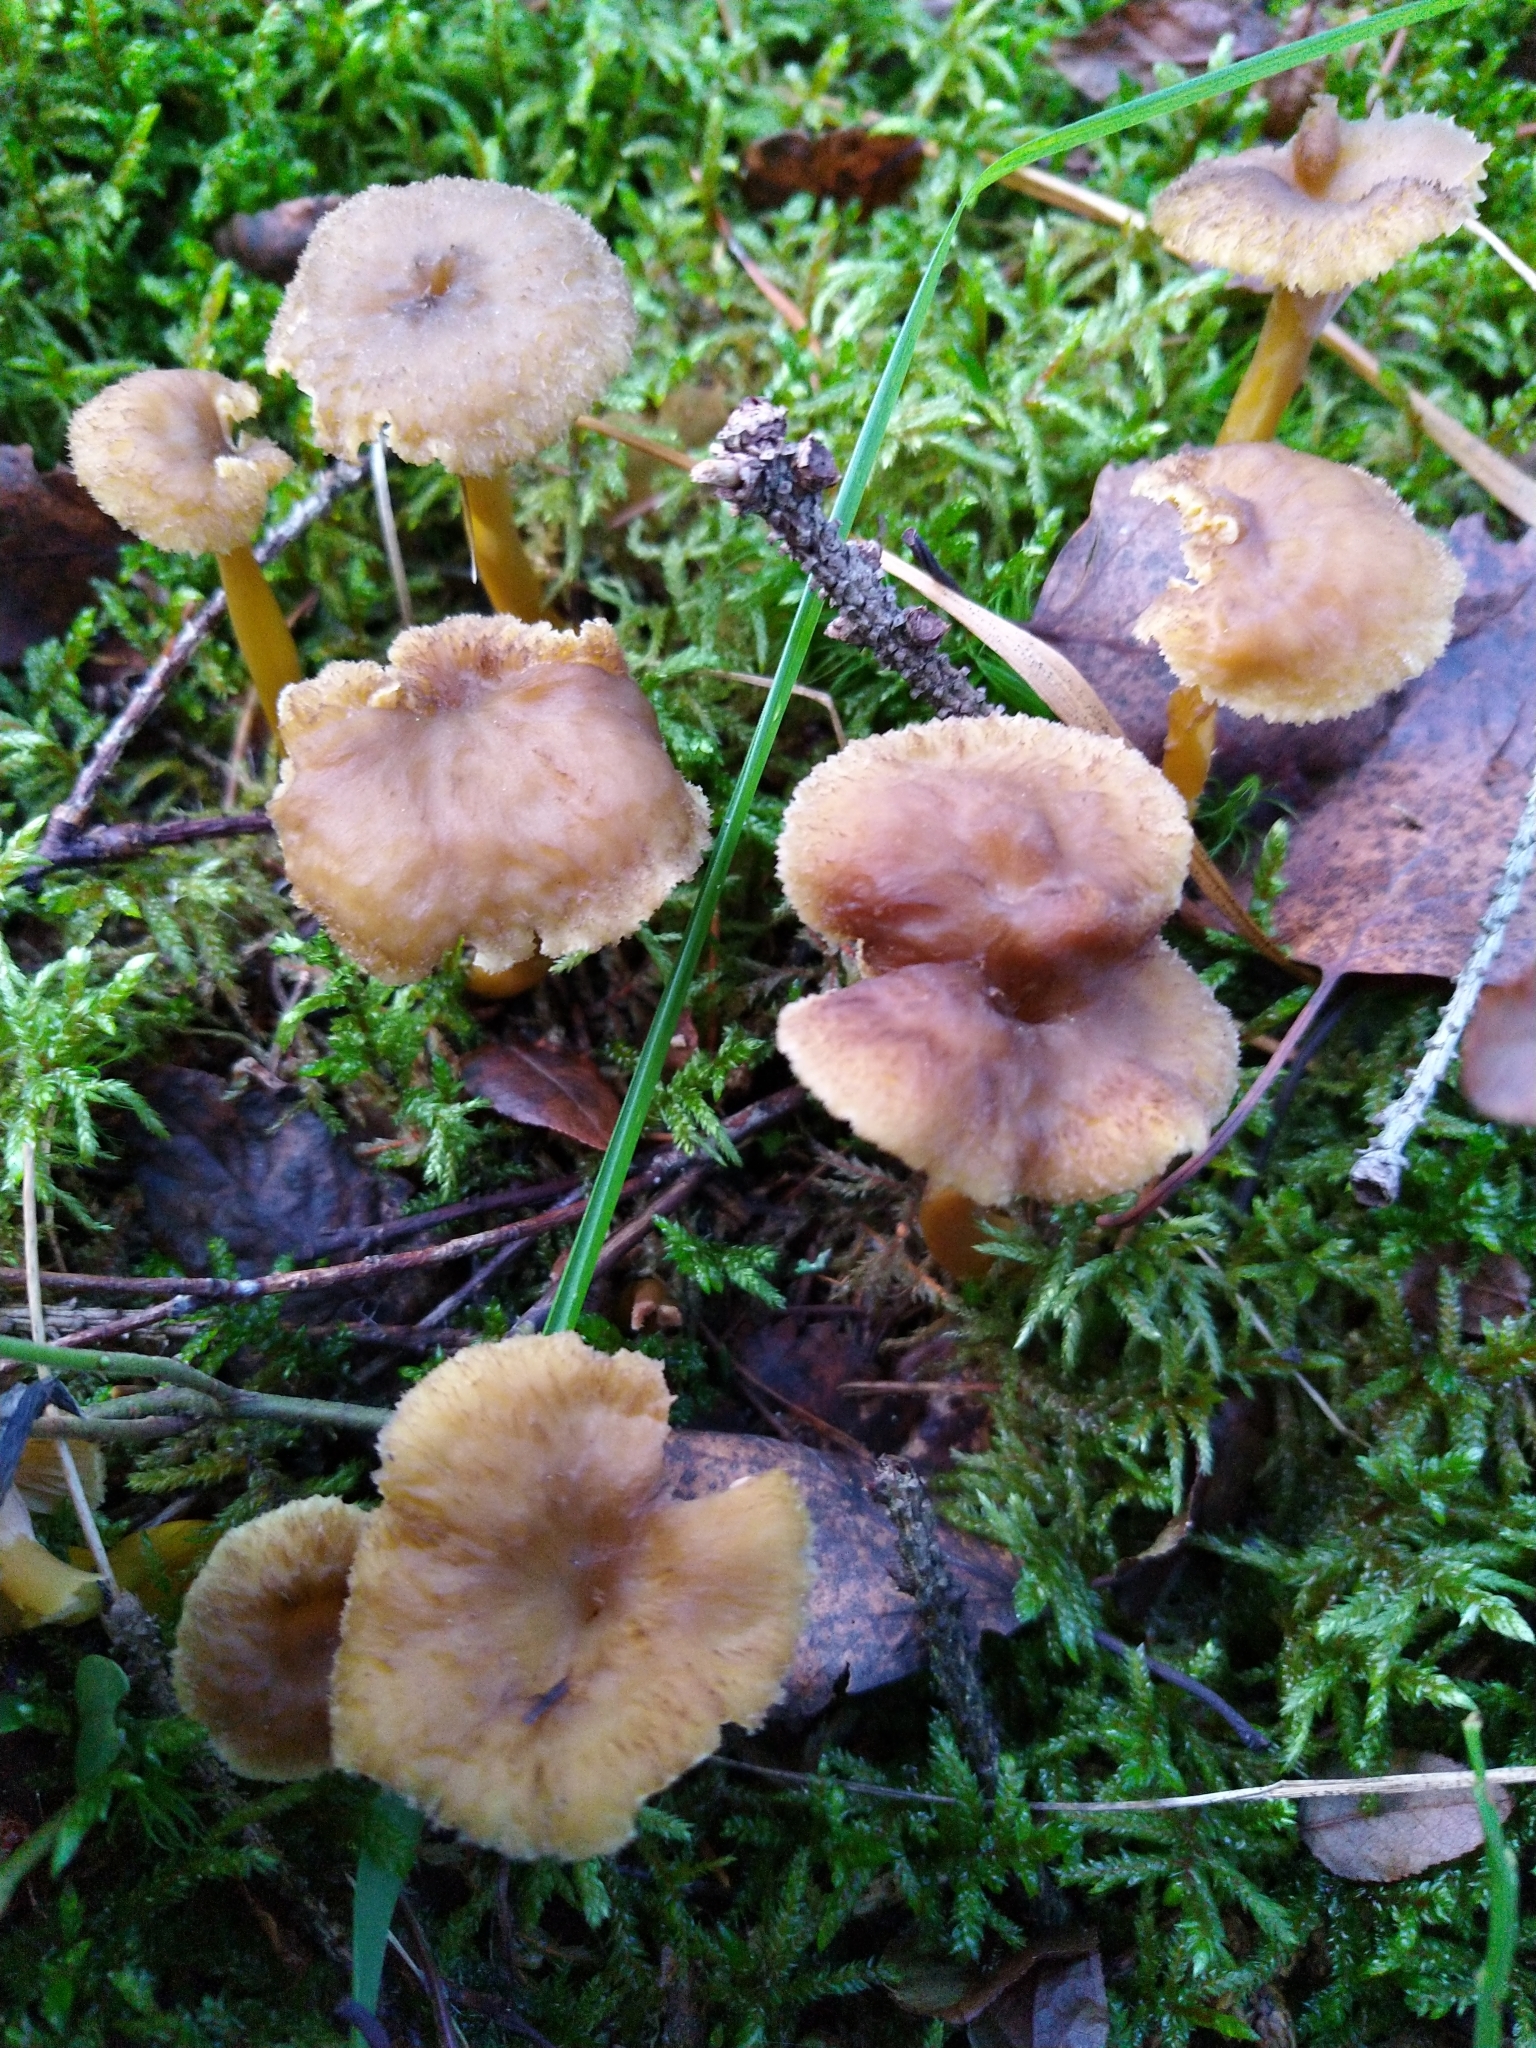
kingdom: Fungi
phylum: Basidiomycota
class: Agaricomycetes
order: Cantharellales
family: Hydnaceae
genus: Craterellus
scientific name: Craterellus tubaeformis
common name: Yellowfoot
